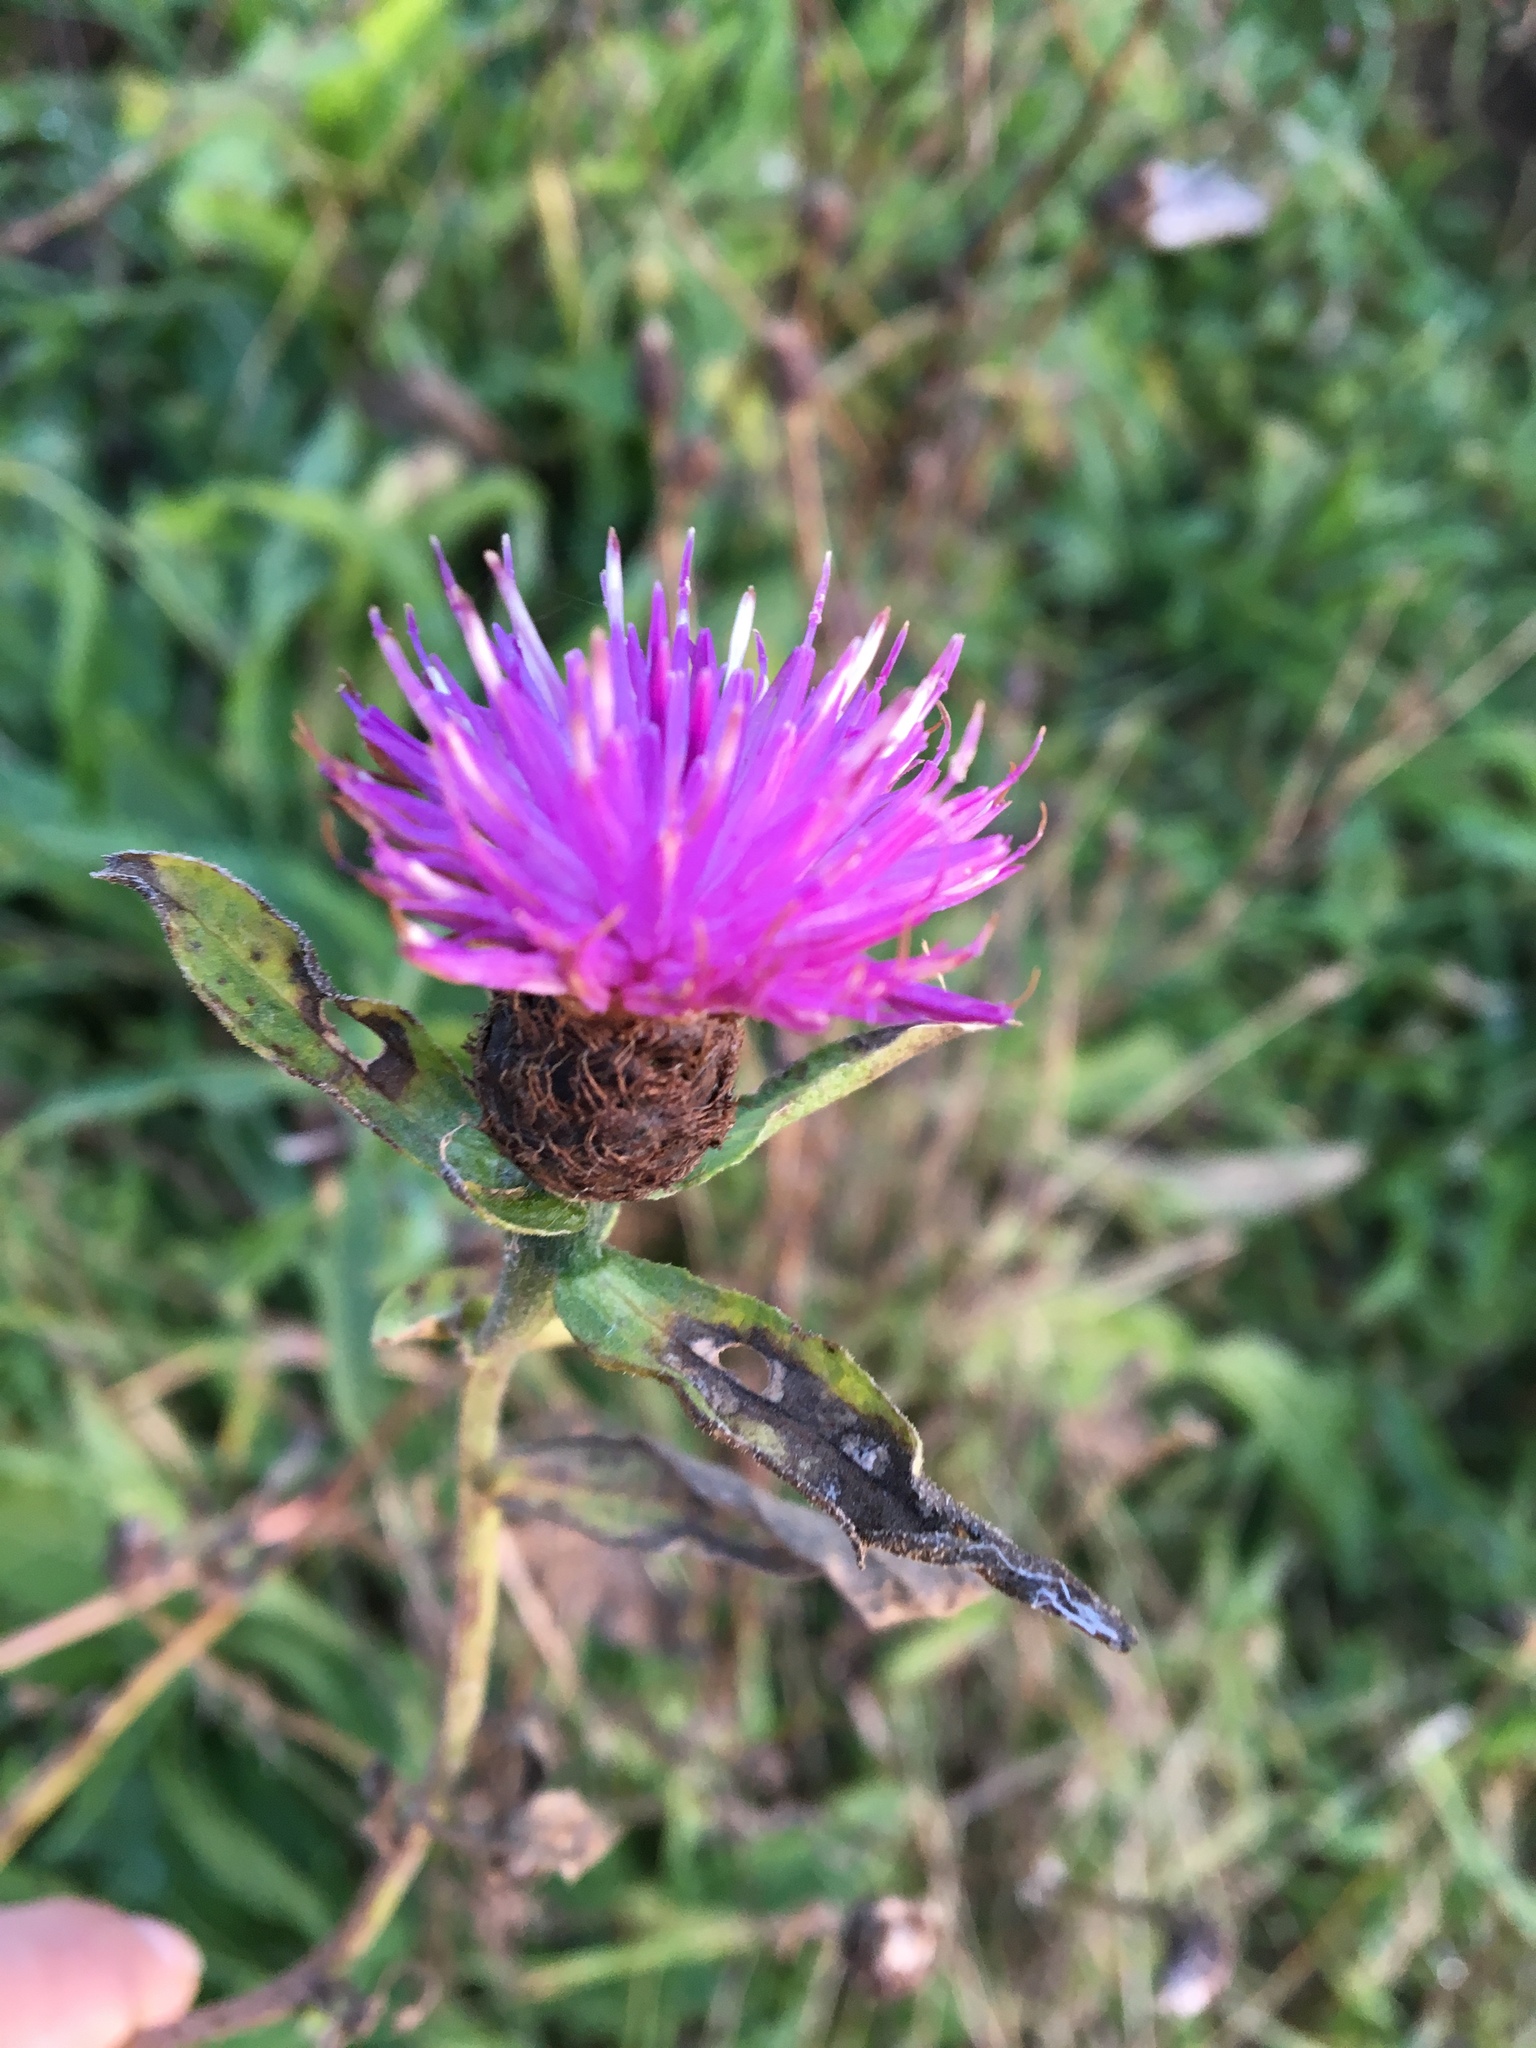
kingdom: Plantae
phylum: Tracheophyta
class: Magnoliopsida
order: Asterales
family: Asteraceae
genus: Centaurea
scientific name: Centaurea nigra
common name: Lesser knapweed
